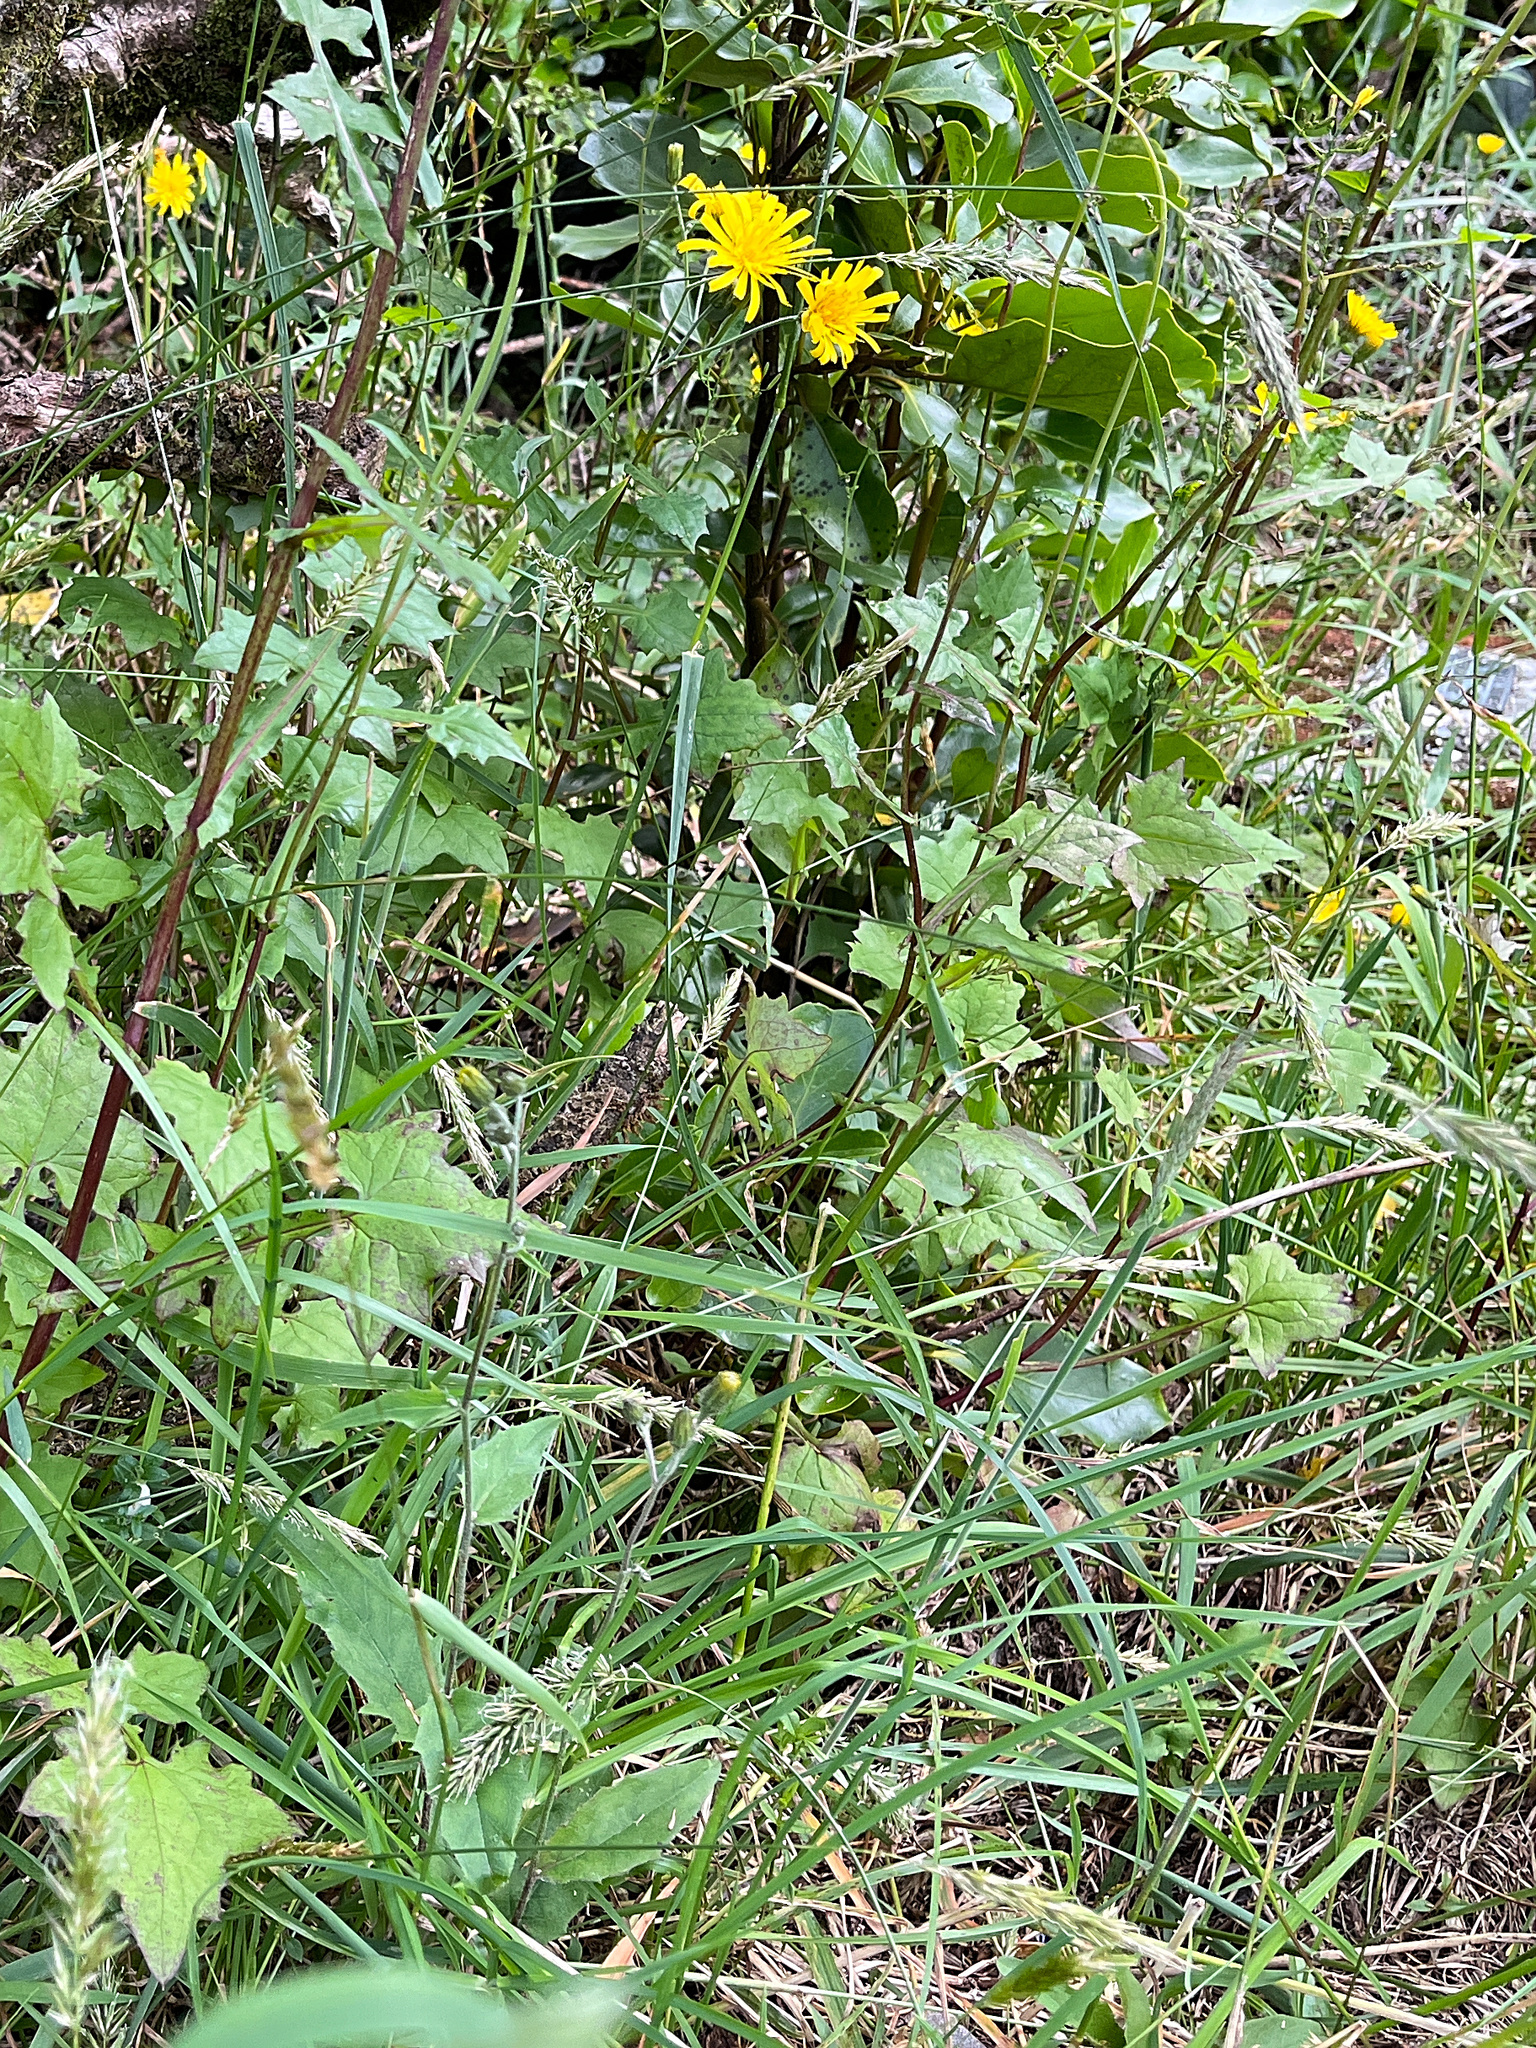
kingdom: Plantae
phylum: Tracheophyta
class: Magnoliopsida
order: Asterales
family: Asteraceae
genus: Hieracium
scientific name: Hieracium lepidulum
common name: Irregular-toothed hawkweed
